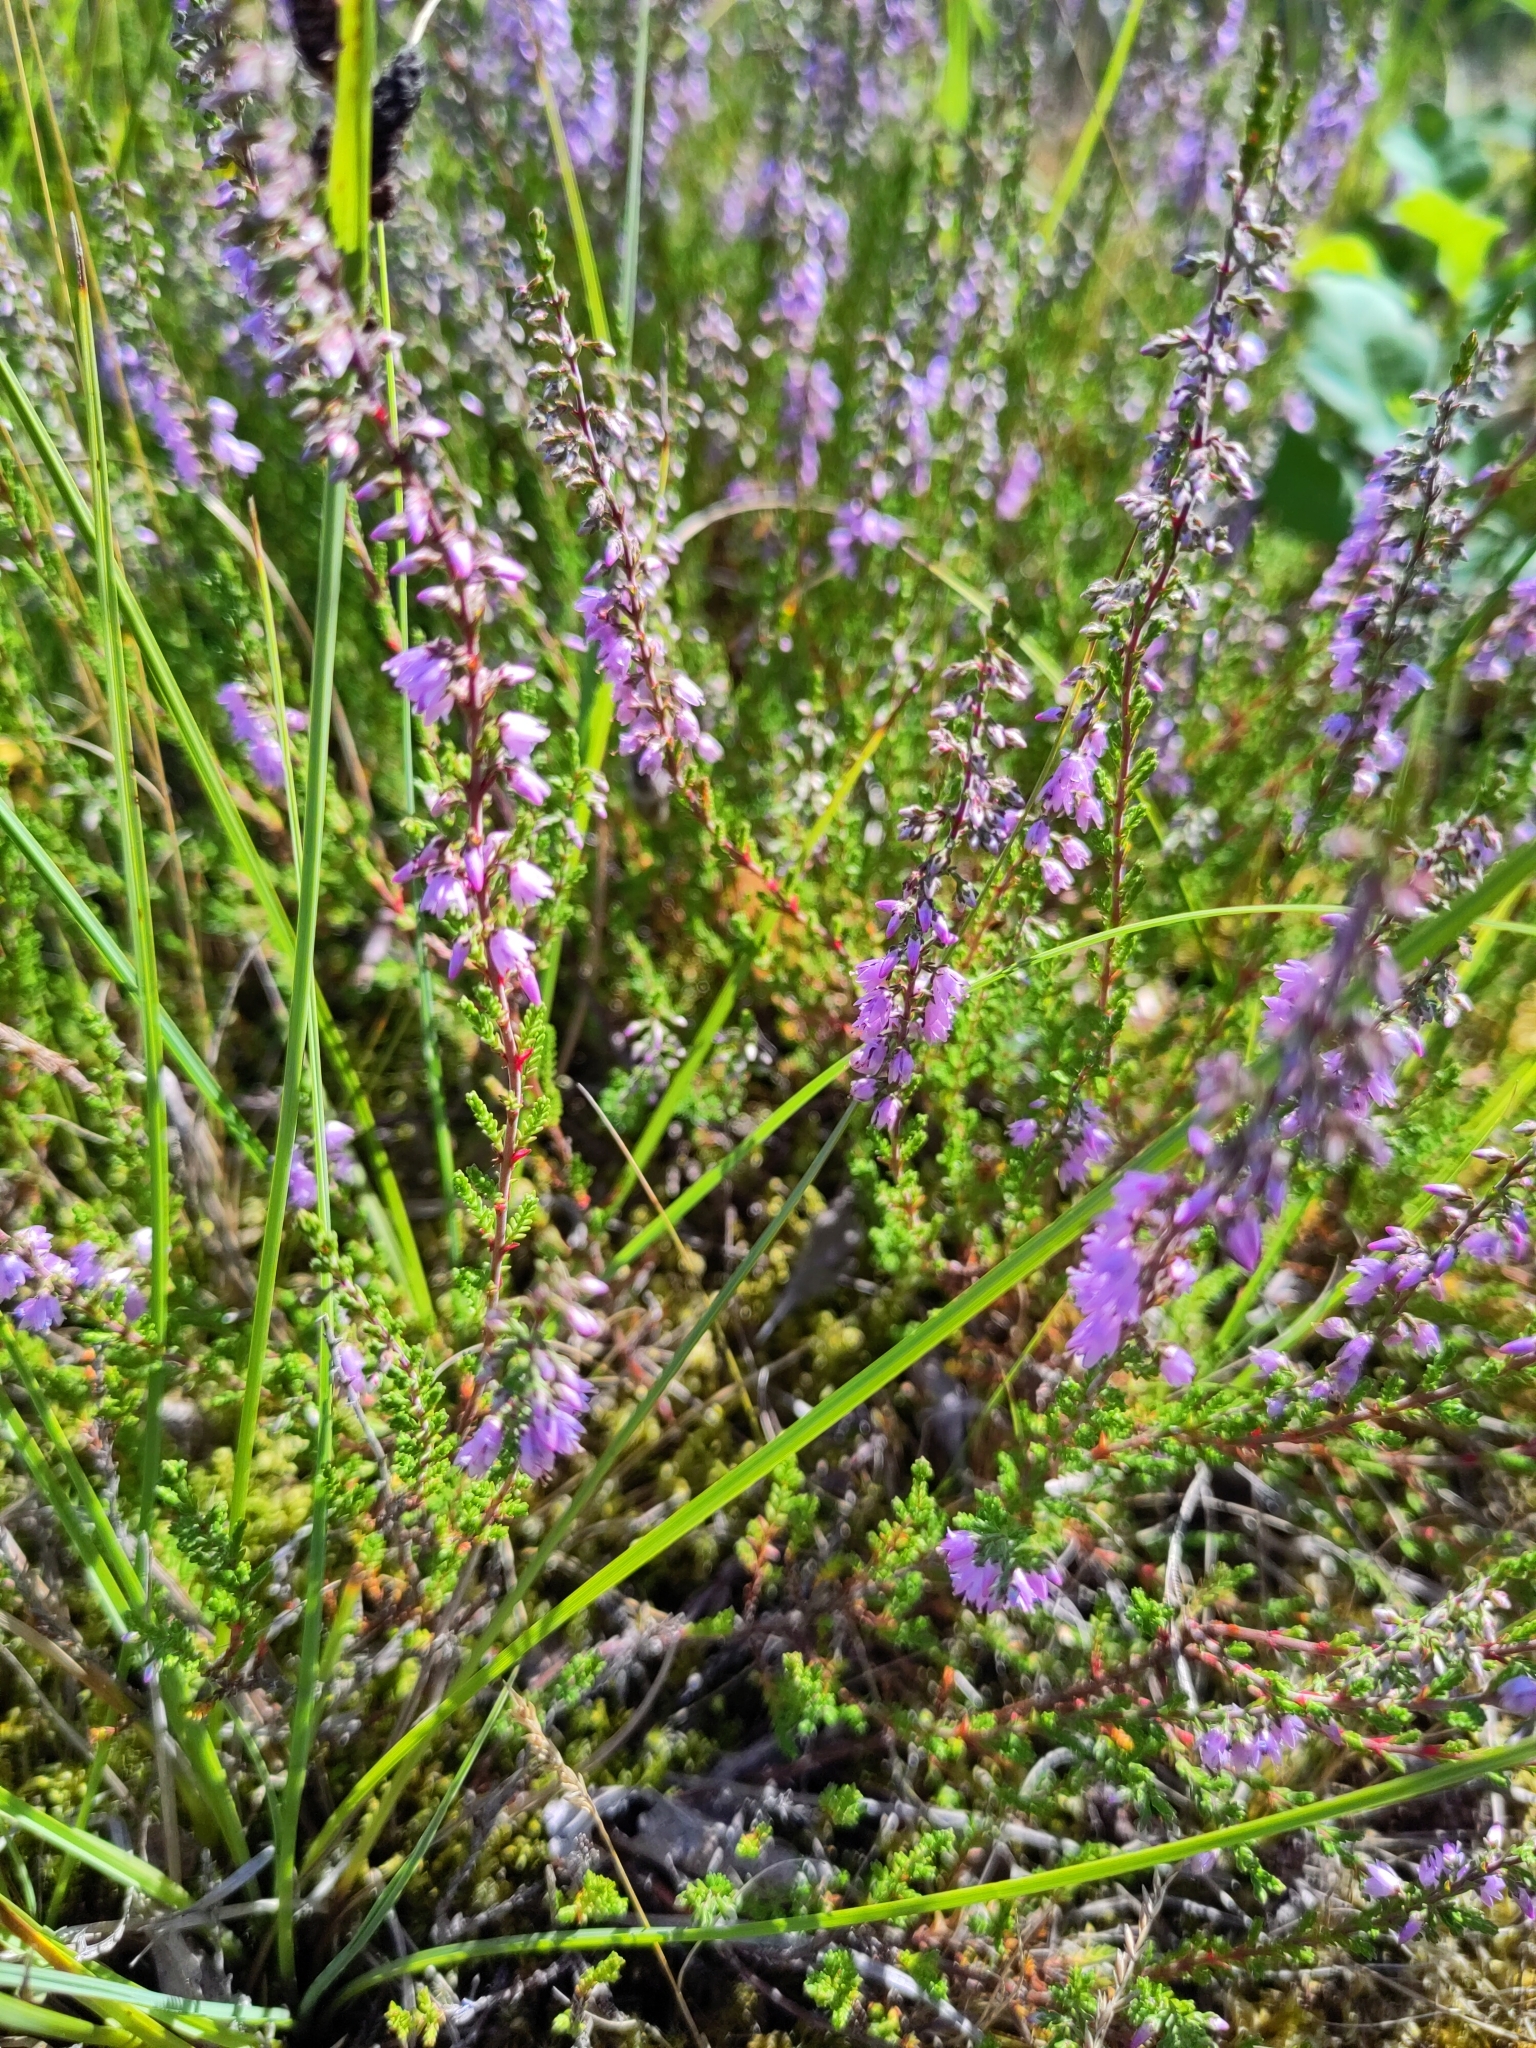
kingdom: Plantae
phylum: Tracheophyta
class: Magnoliopsida
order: Ericales
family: Ericaceae
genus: Calluna
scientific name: Calluna vulgaris
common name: Heather
